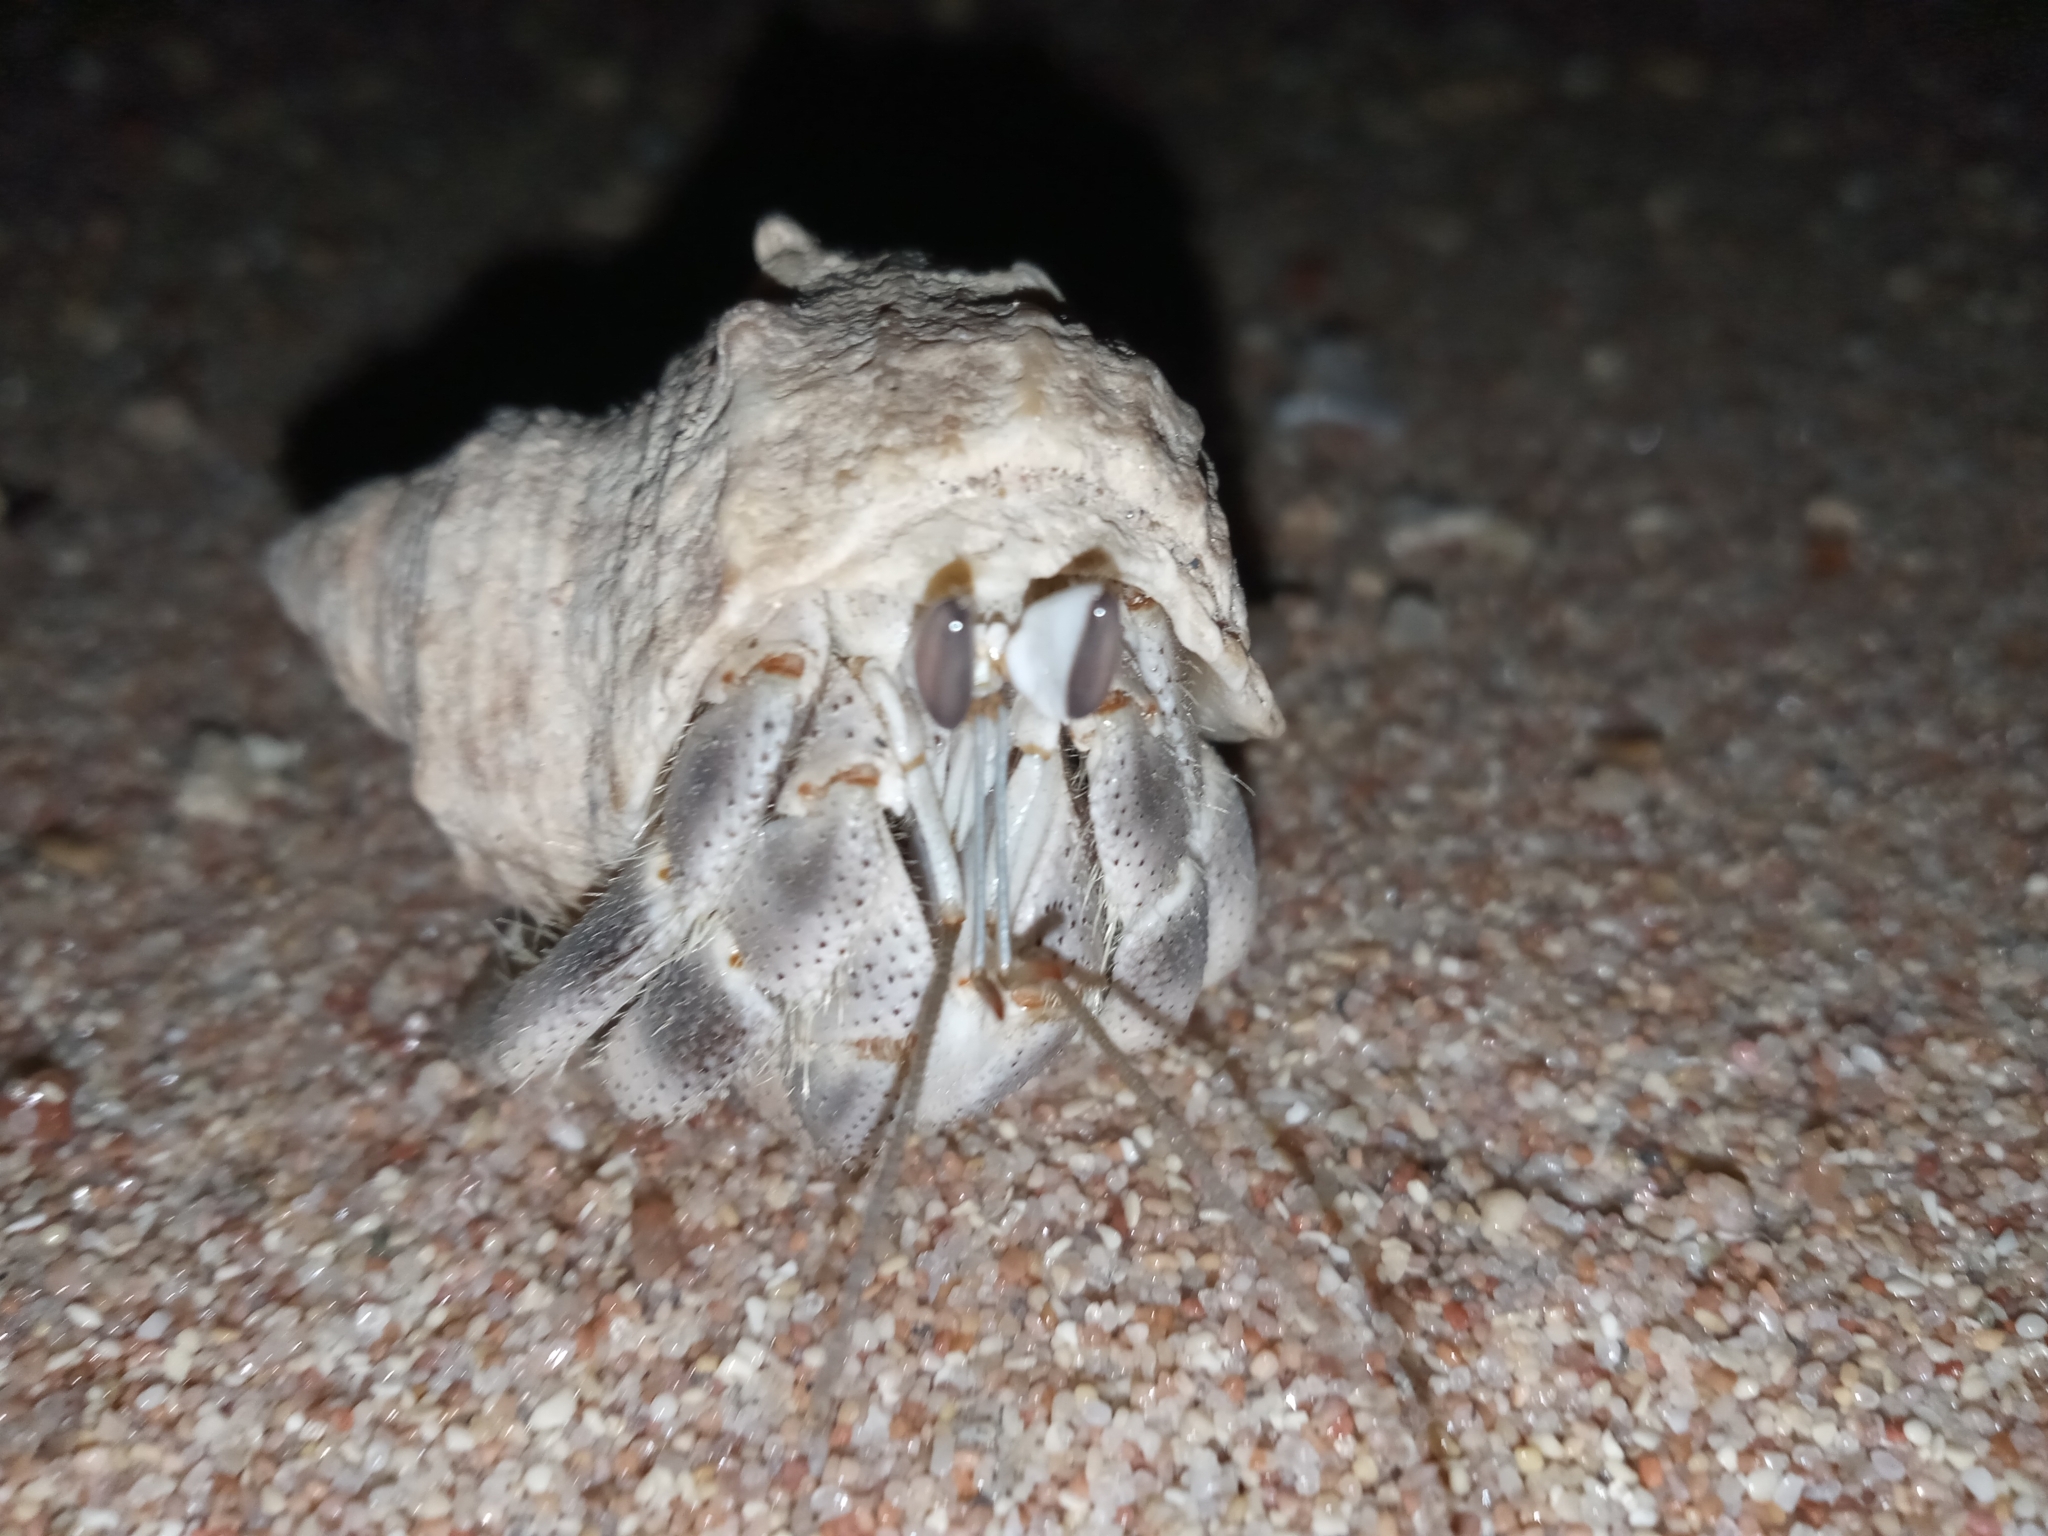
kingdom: Animalia
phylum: Arthropoda
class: Malacostraca
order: Decapoda
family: Coenobitidae
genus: Coenobita
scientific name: Coenobita scaevola
